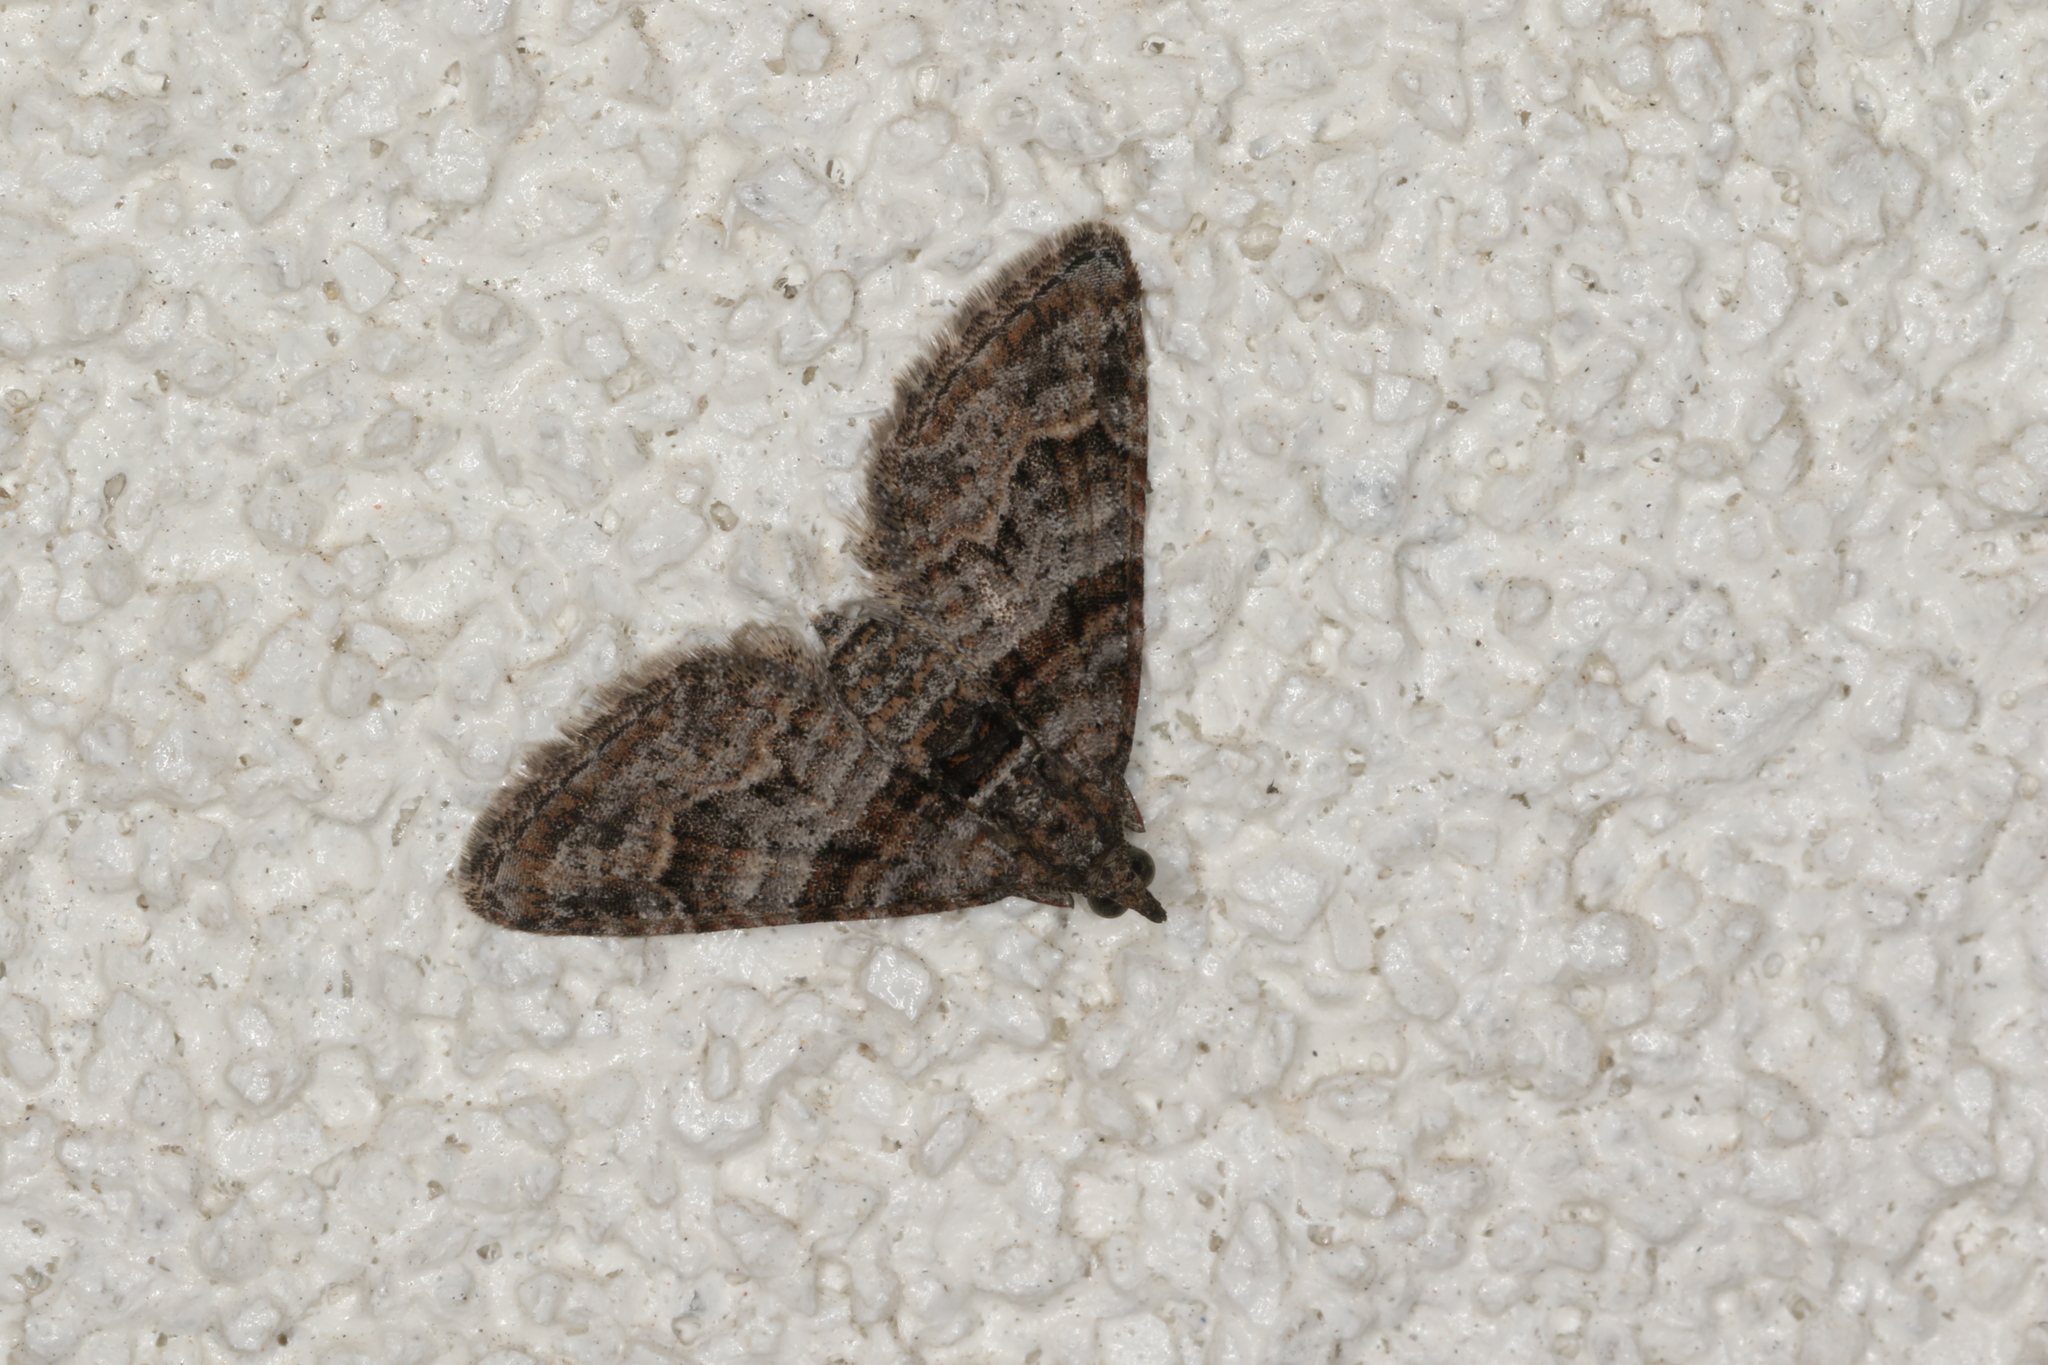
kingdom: Animalia
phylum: Arthropoda
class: Insecta
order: Lepidoptera
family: Geometridae
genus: Phrissogonus
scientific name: Phrissogonus laticostata
